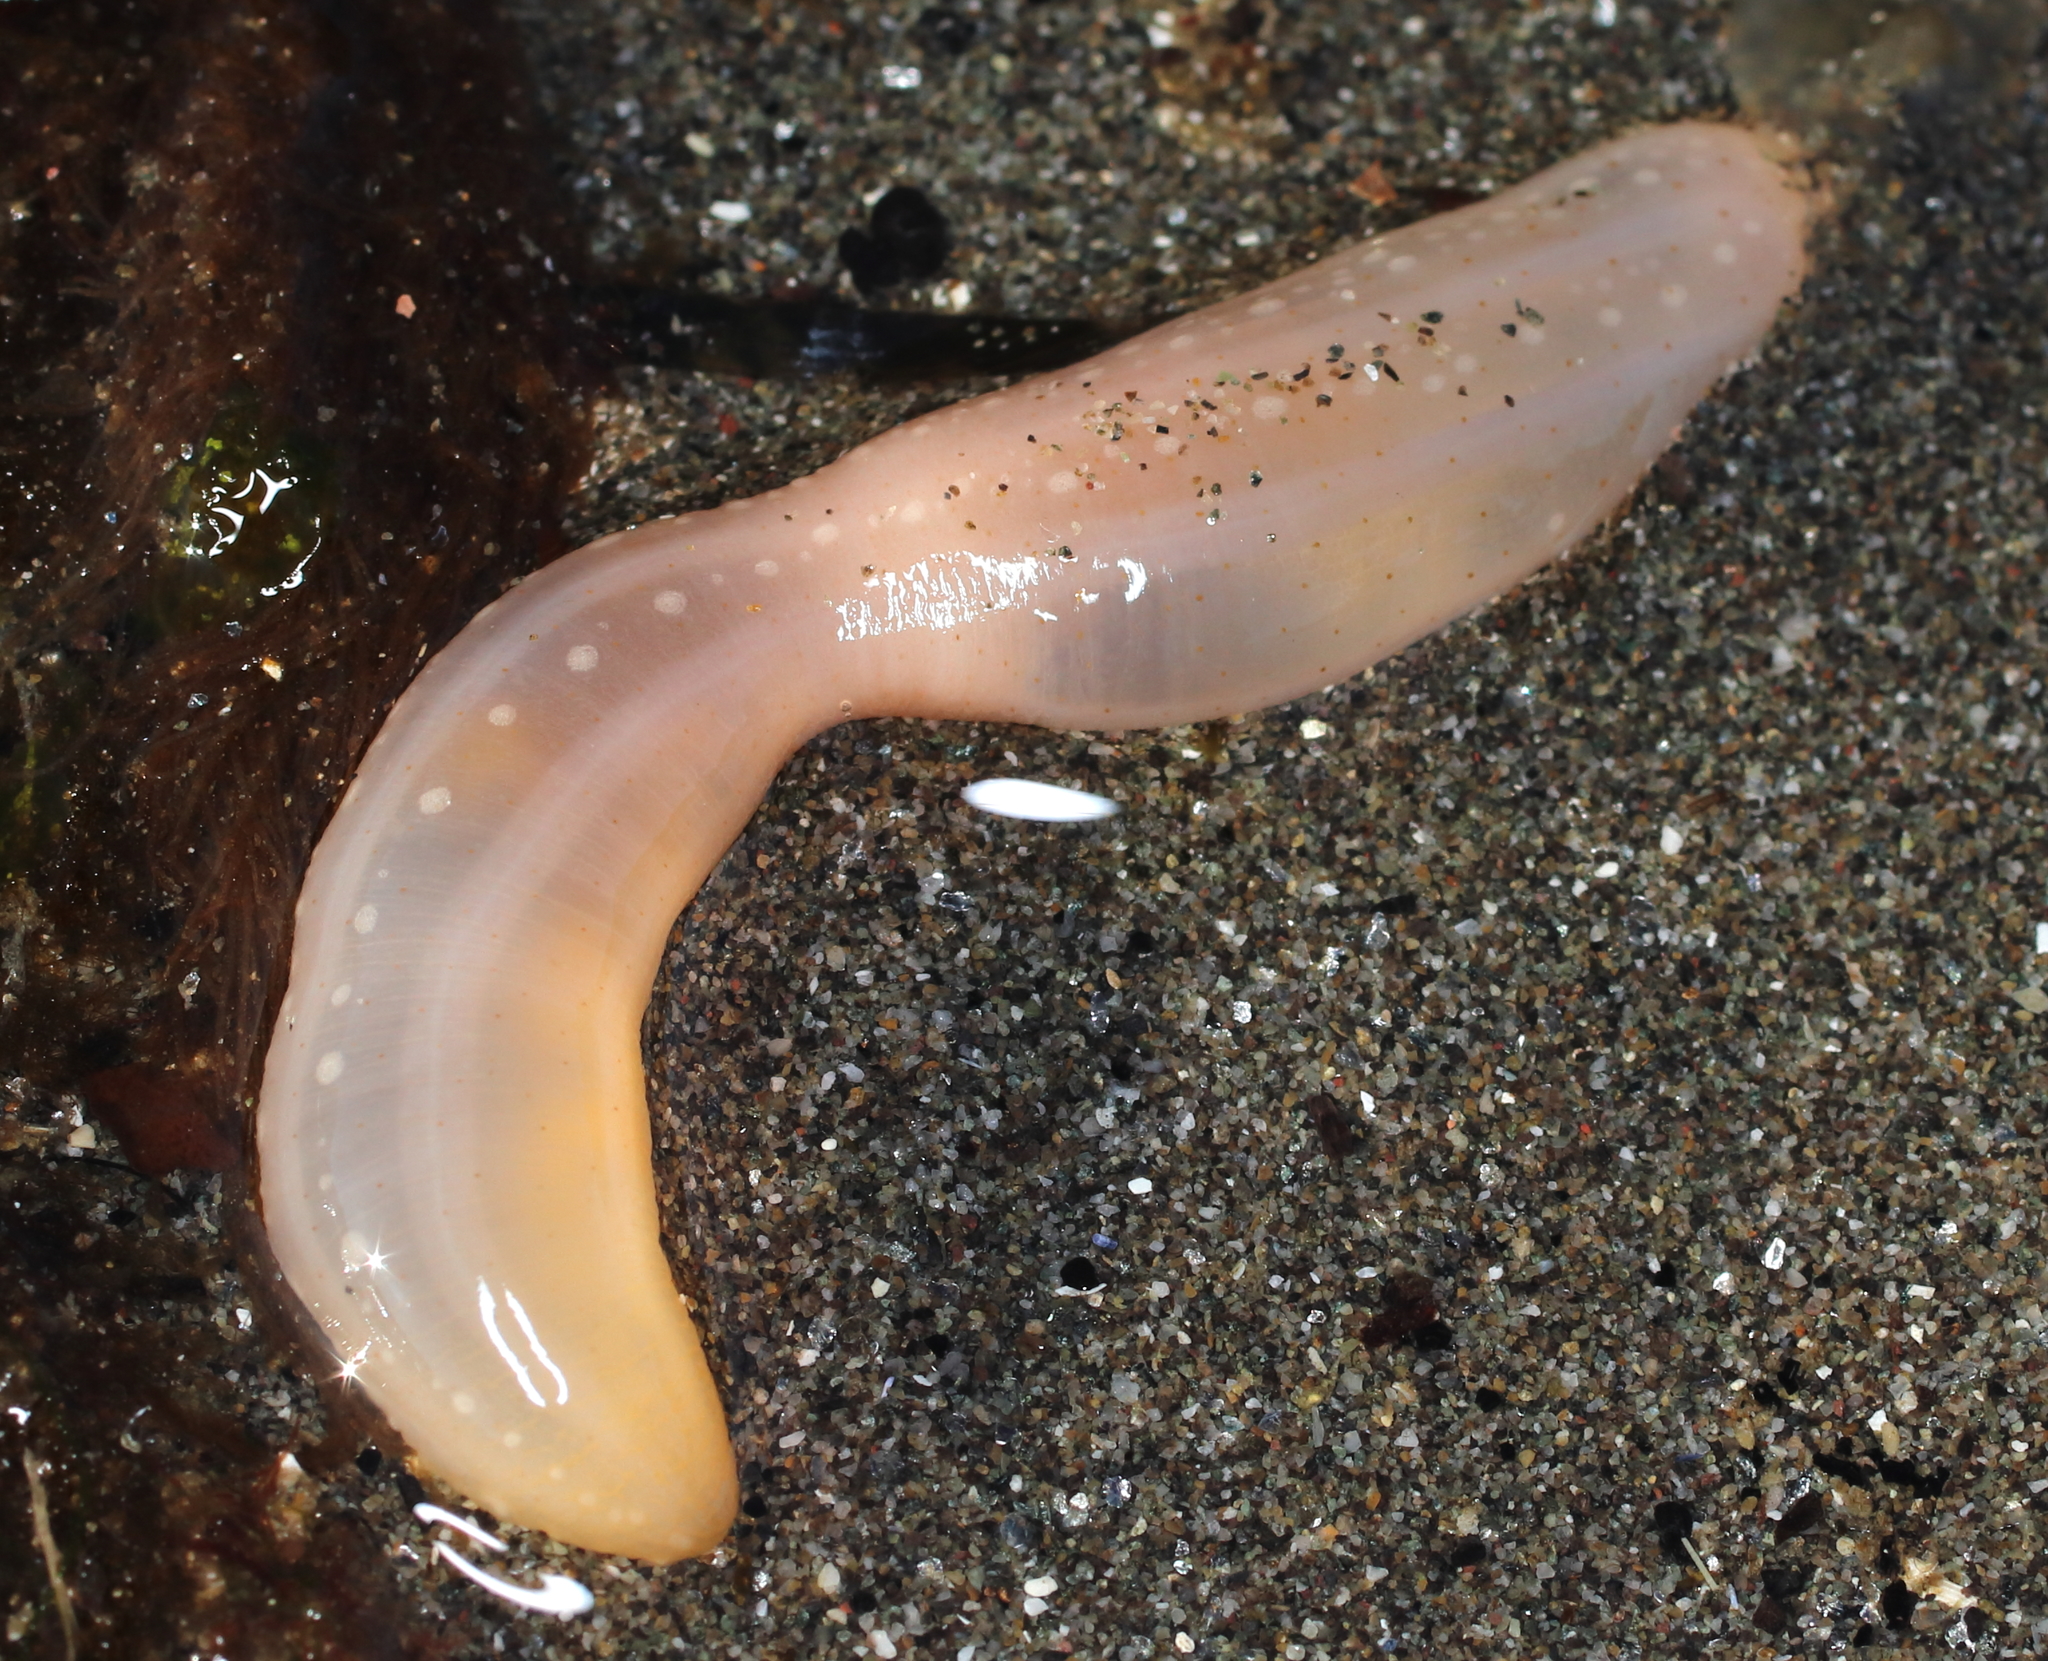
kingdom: Animalia
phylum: Echinodermata
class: Holothuroidea
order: Apodida
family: Chiridotidae
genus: Chiridota
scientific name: Chiridota discolor
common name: Jellybean footless sea cucumber
